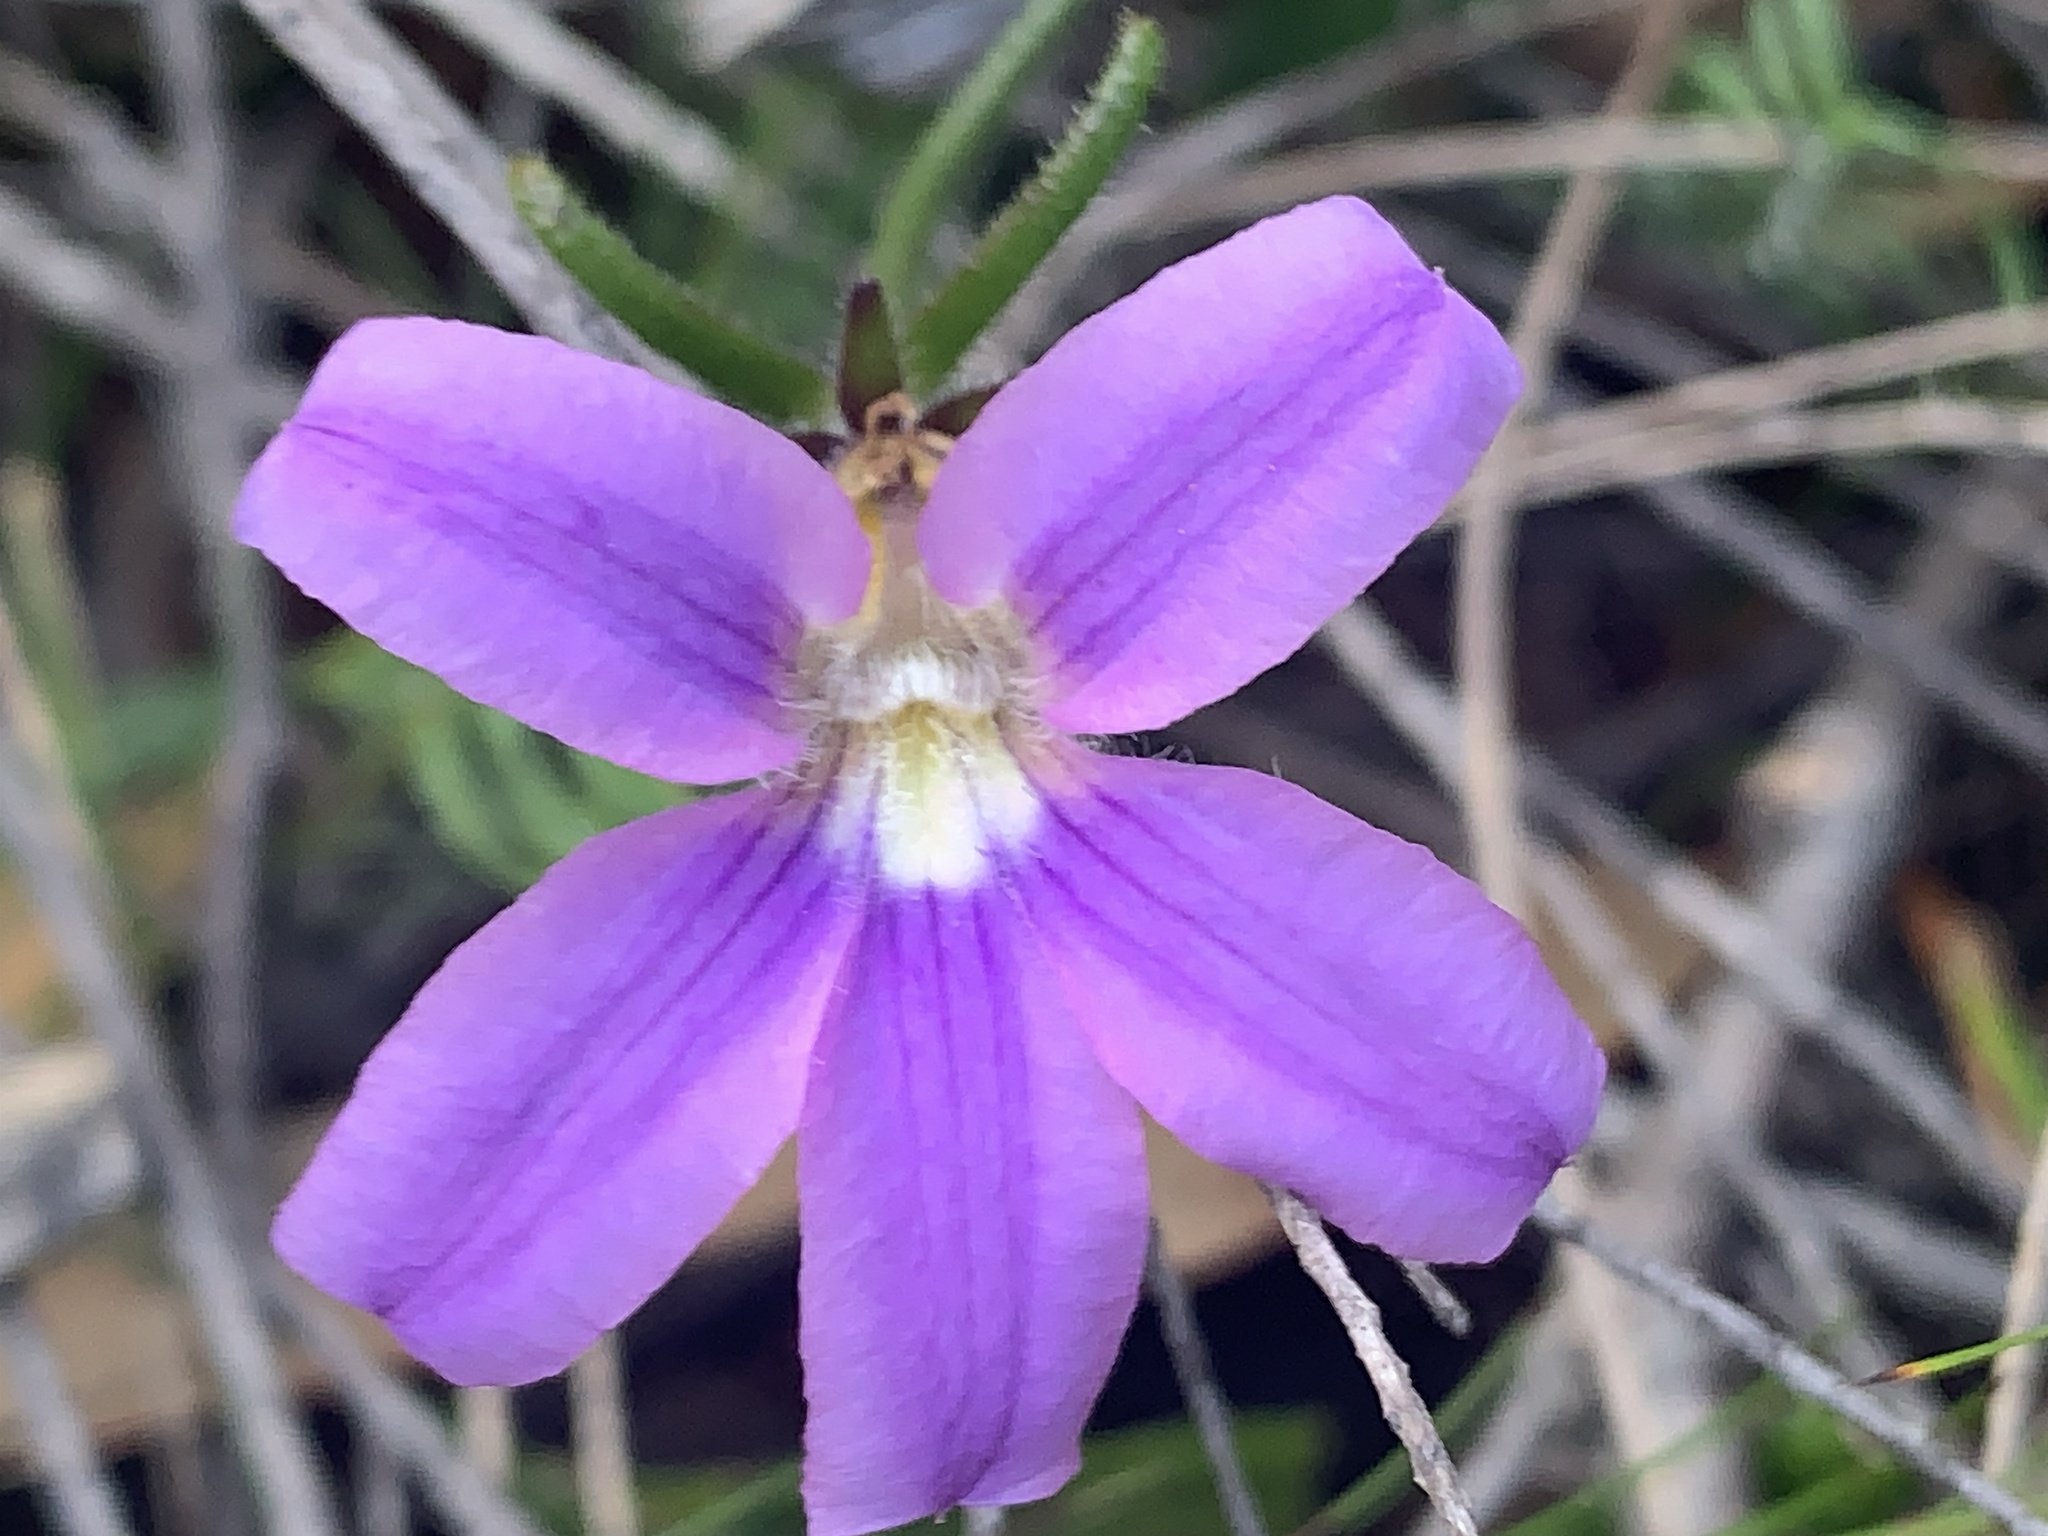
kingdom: Plantae
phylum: Tracheophyta
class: Magnoliopsida
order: Asterales
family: Goodeniaceae
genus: Scaevola
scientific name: Scaevola ramosissima
